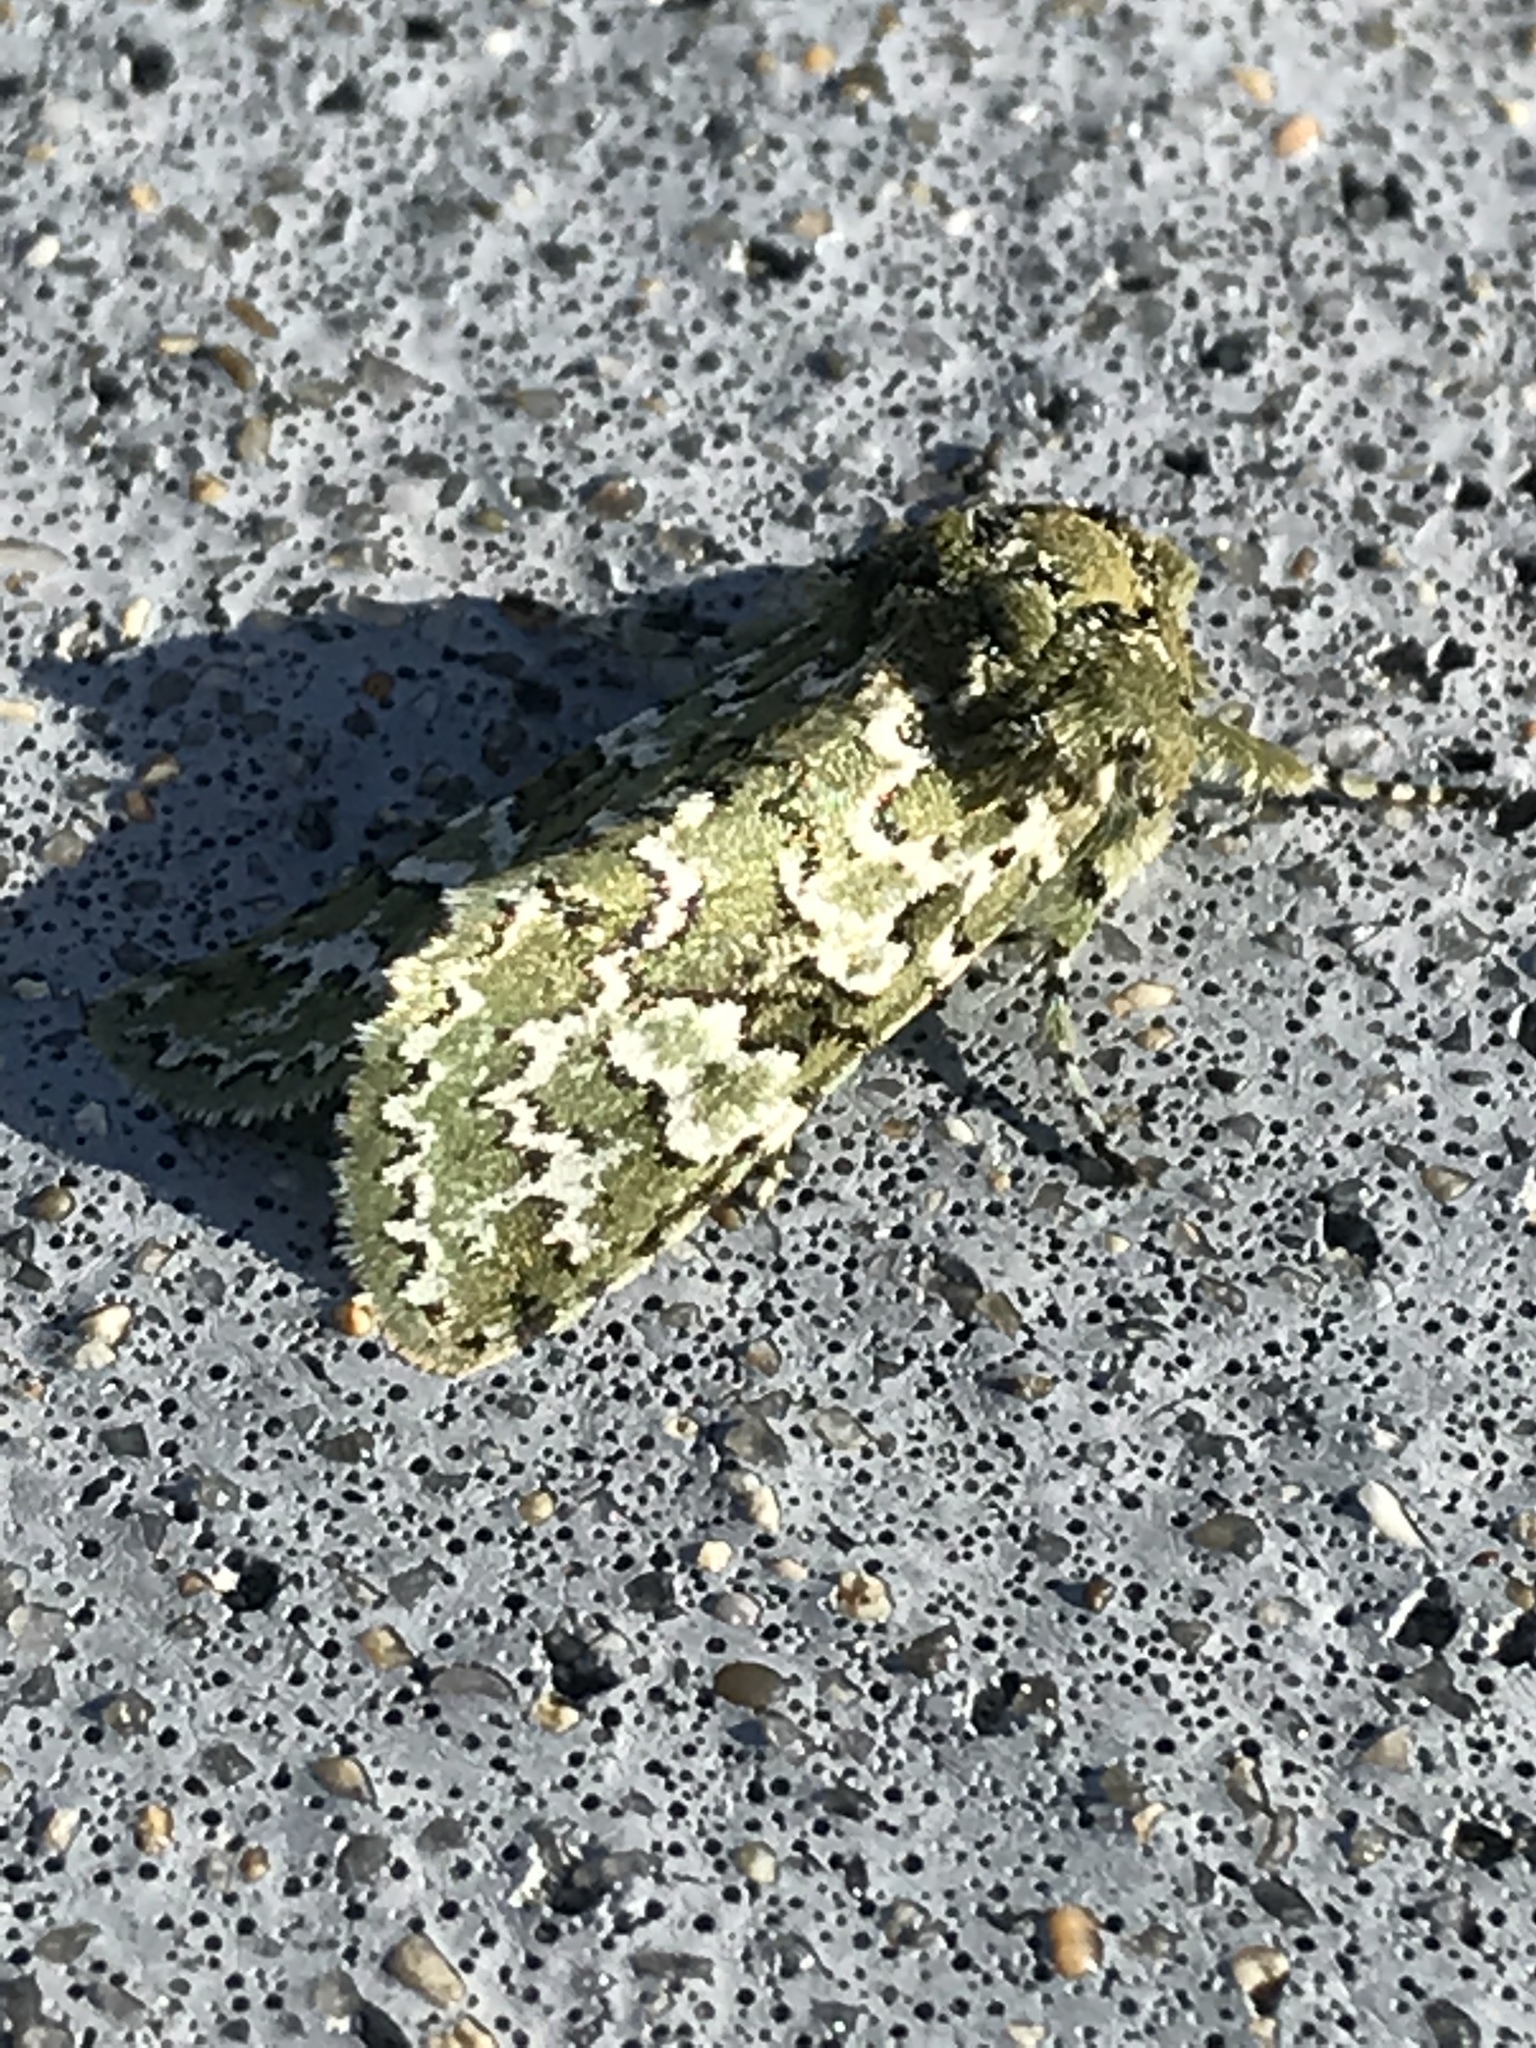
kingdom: Animalia
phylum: Arthropoda
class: Insecta
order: Lepidoptera
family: Noctuidae
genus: Feralia
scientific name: Feralia februalis
